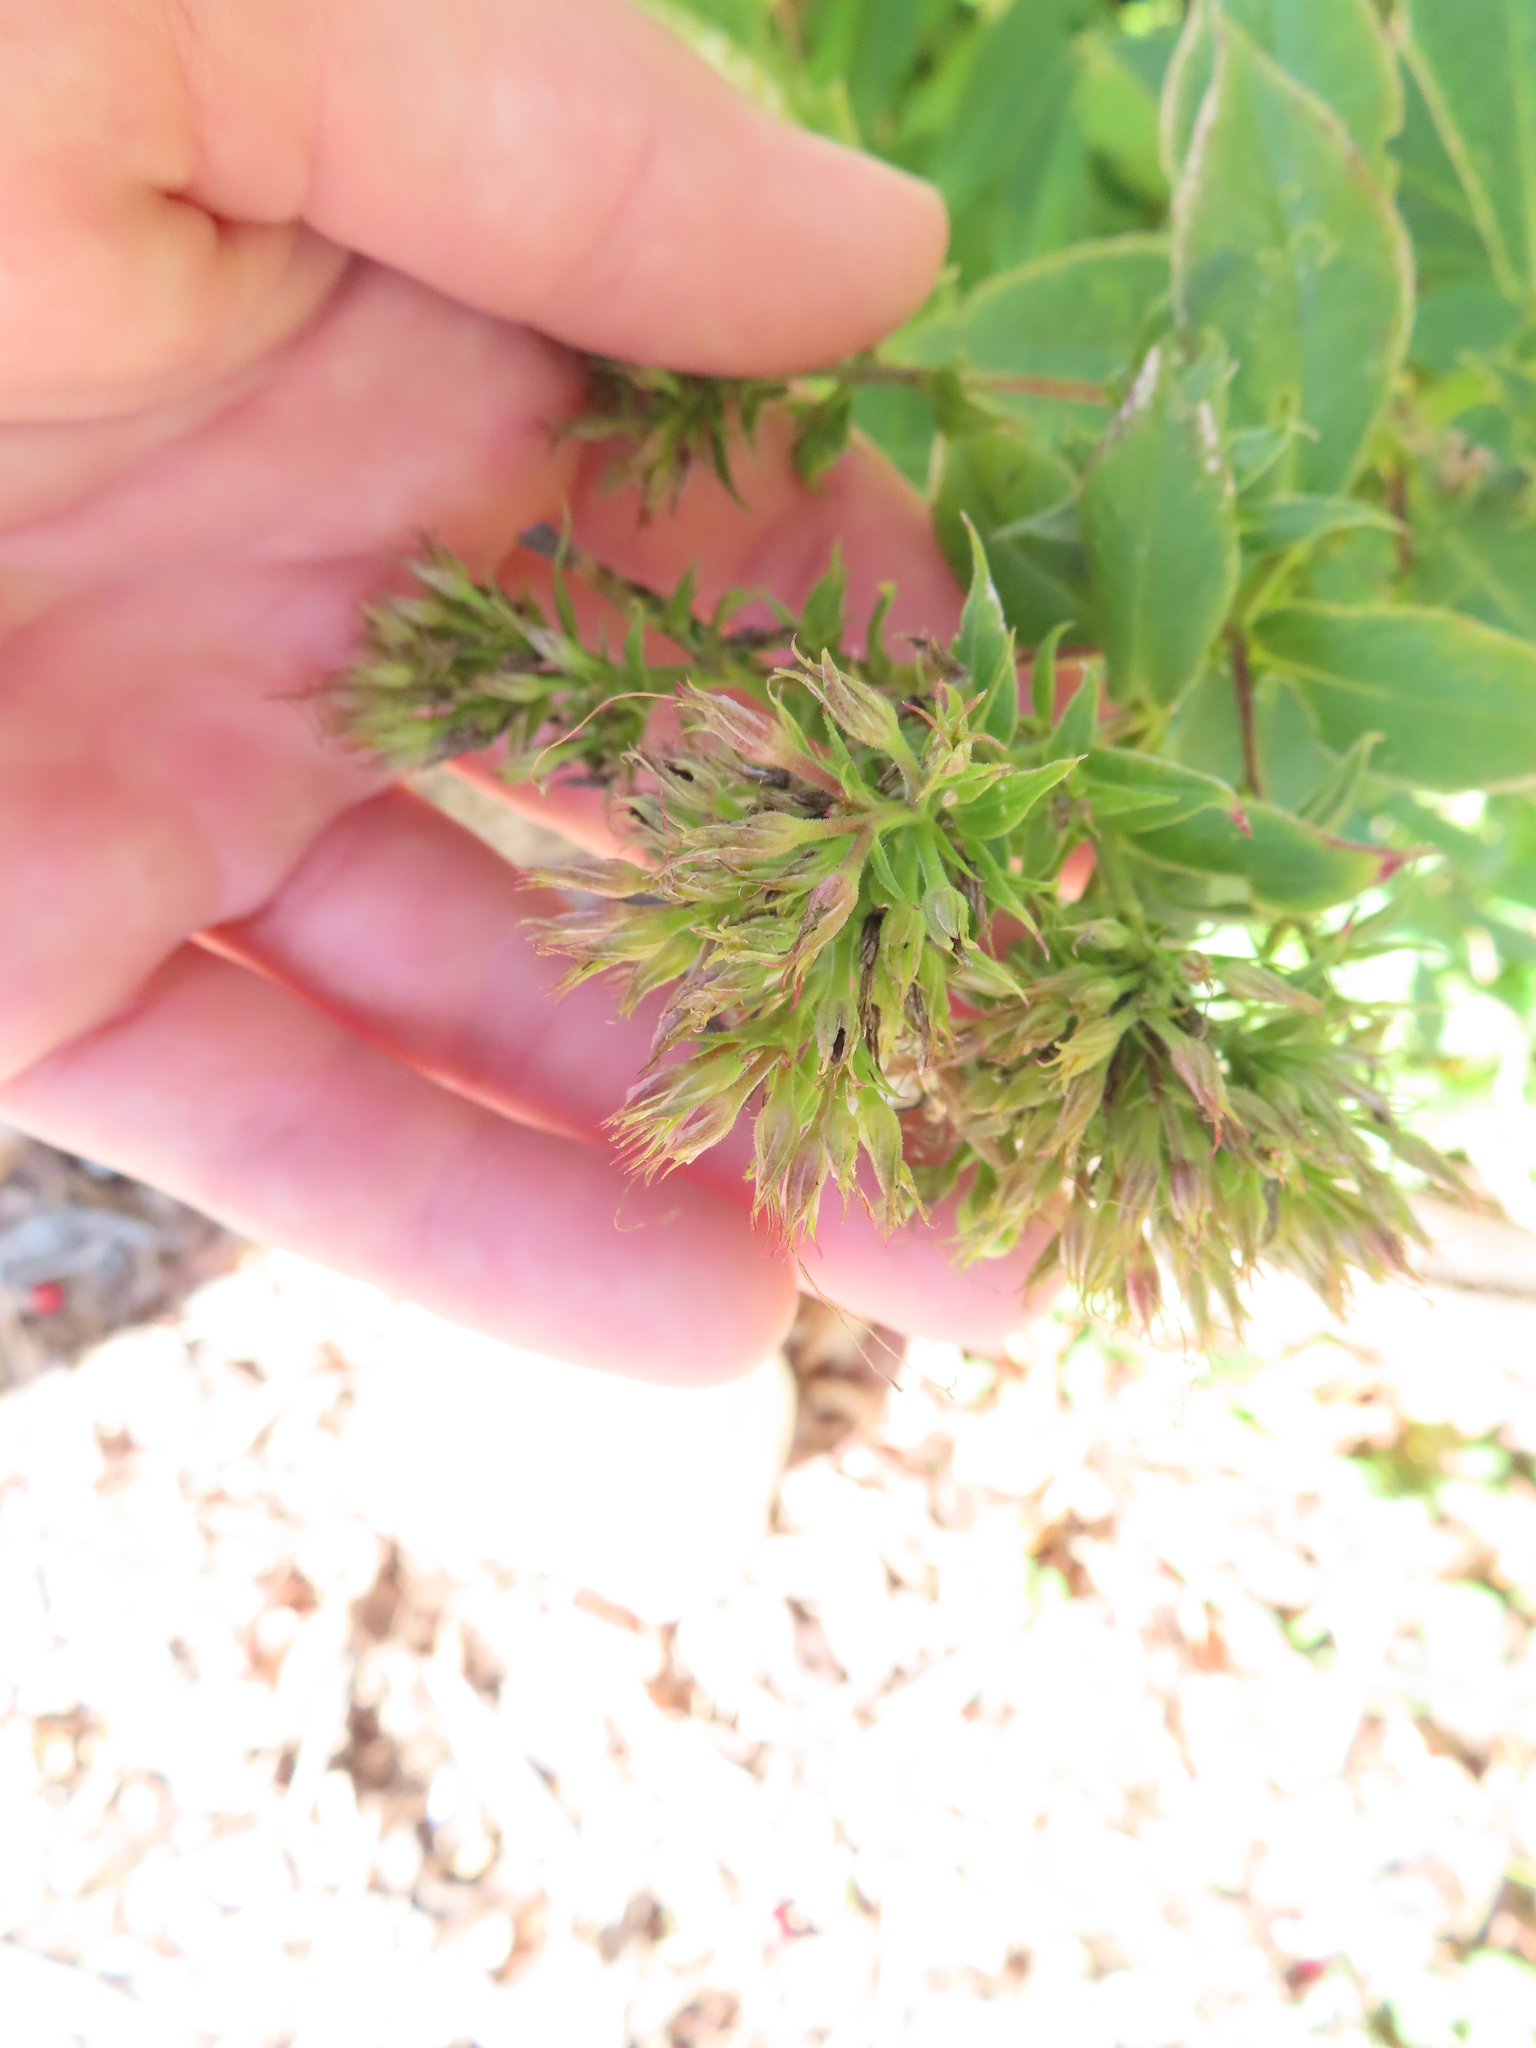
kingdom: Animalia
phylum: Arthropoda
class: Insecta
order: Hemiptera
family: Aphididae
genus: Hyadaphis
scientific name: Hyadaphis tataricae
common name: Honeysuckle witches' broom aphid
